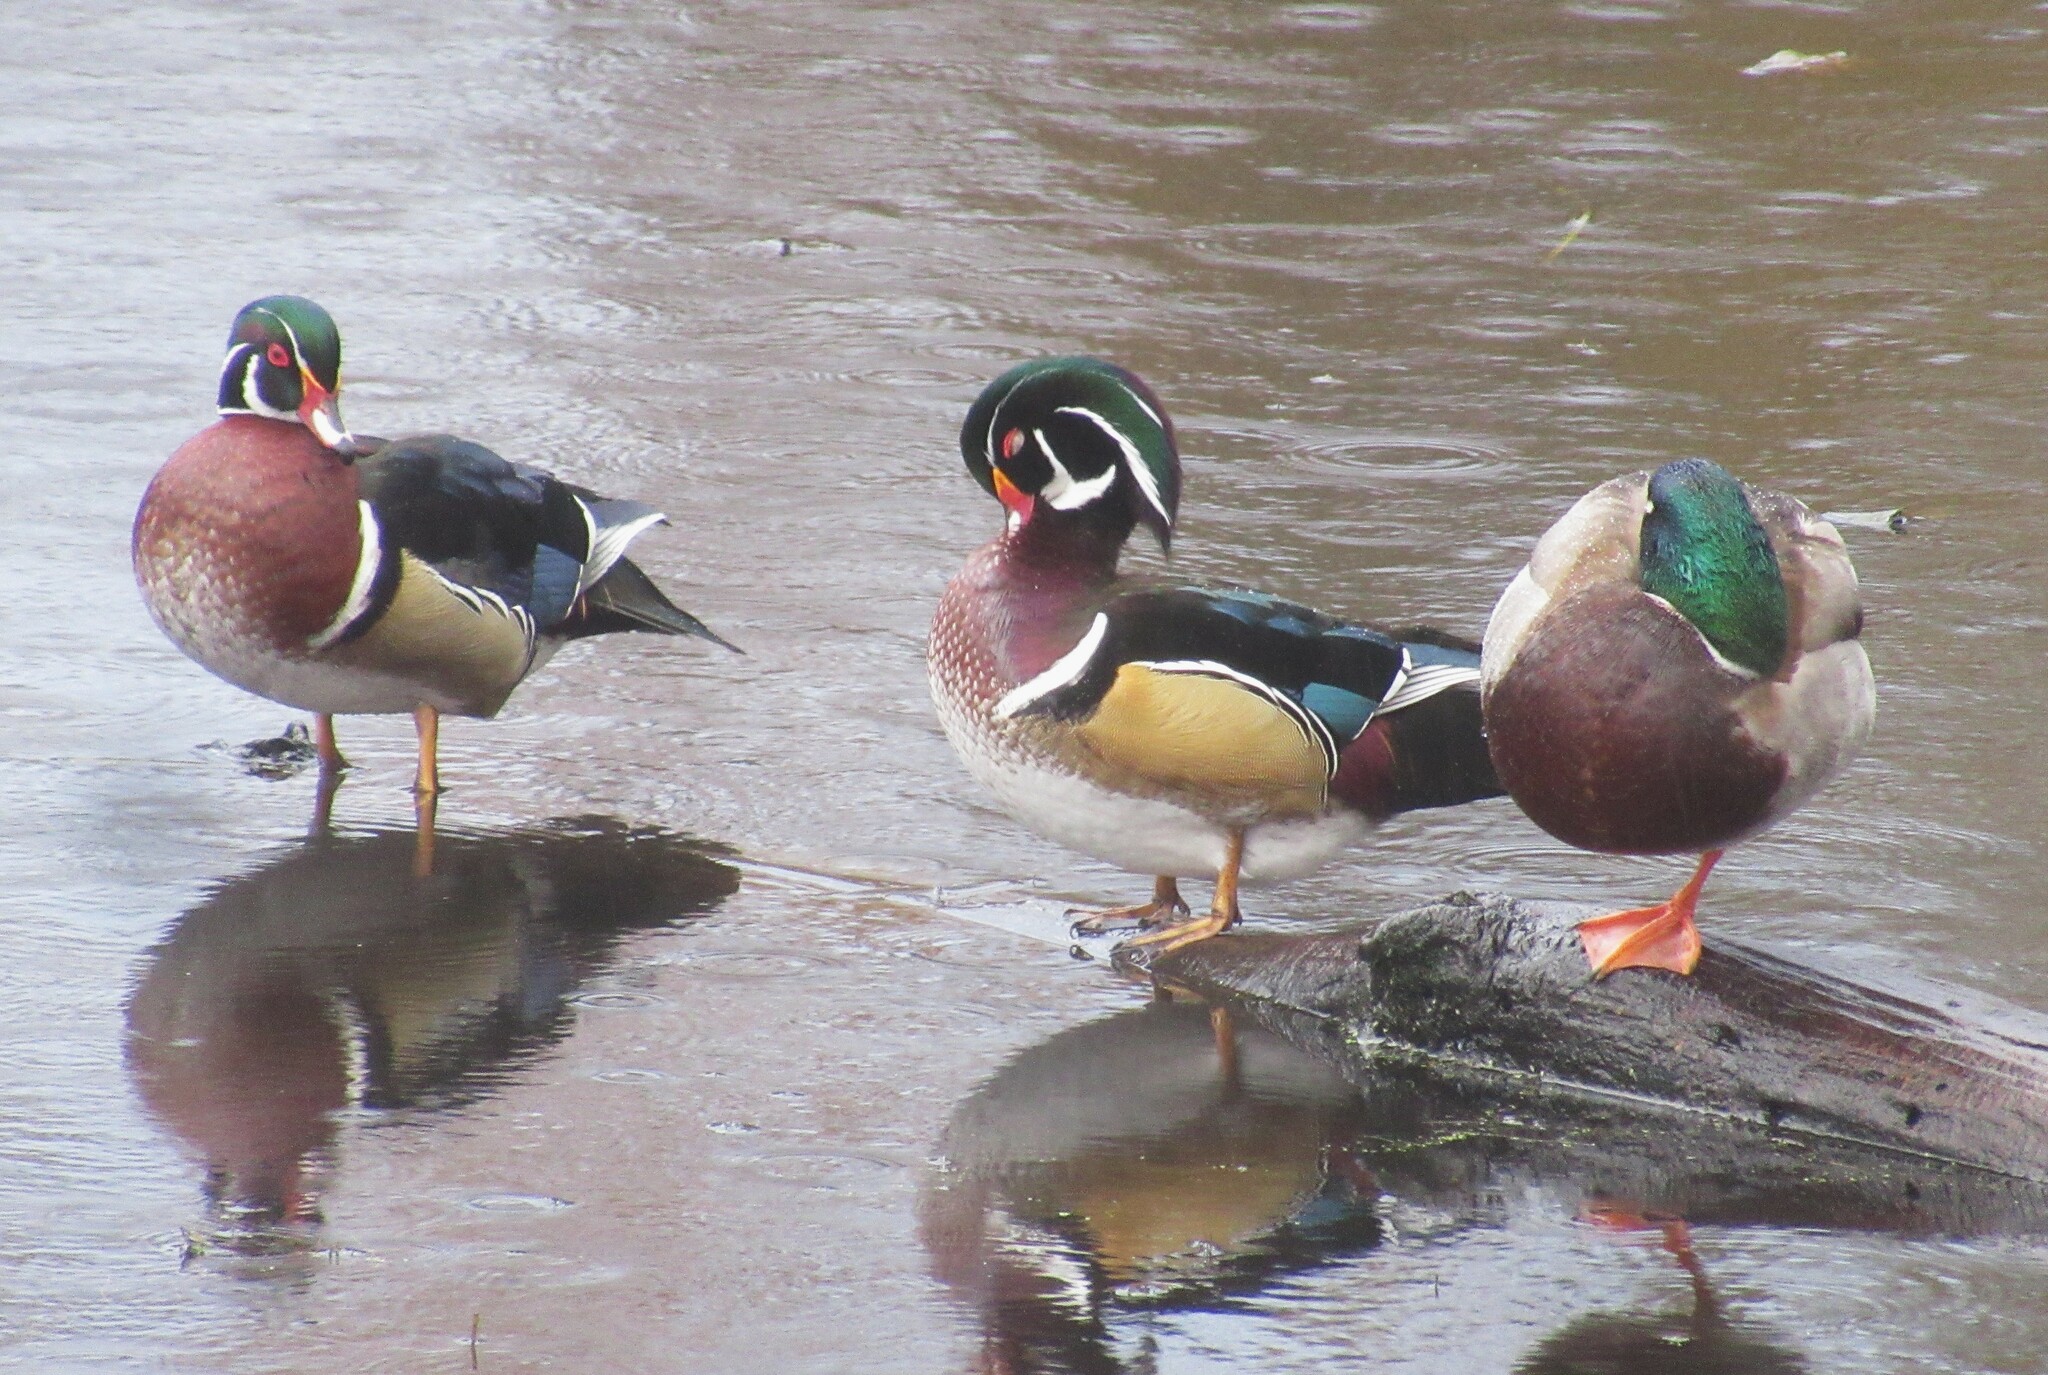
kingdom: Animalia
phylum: Chordata
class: Aves
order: Anseriformes
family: Anatidae
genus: Aix
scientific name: Aix sponsa
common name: Wood duck
